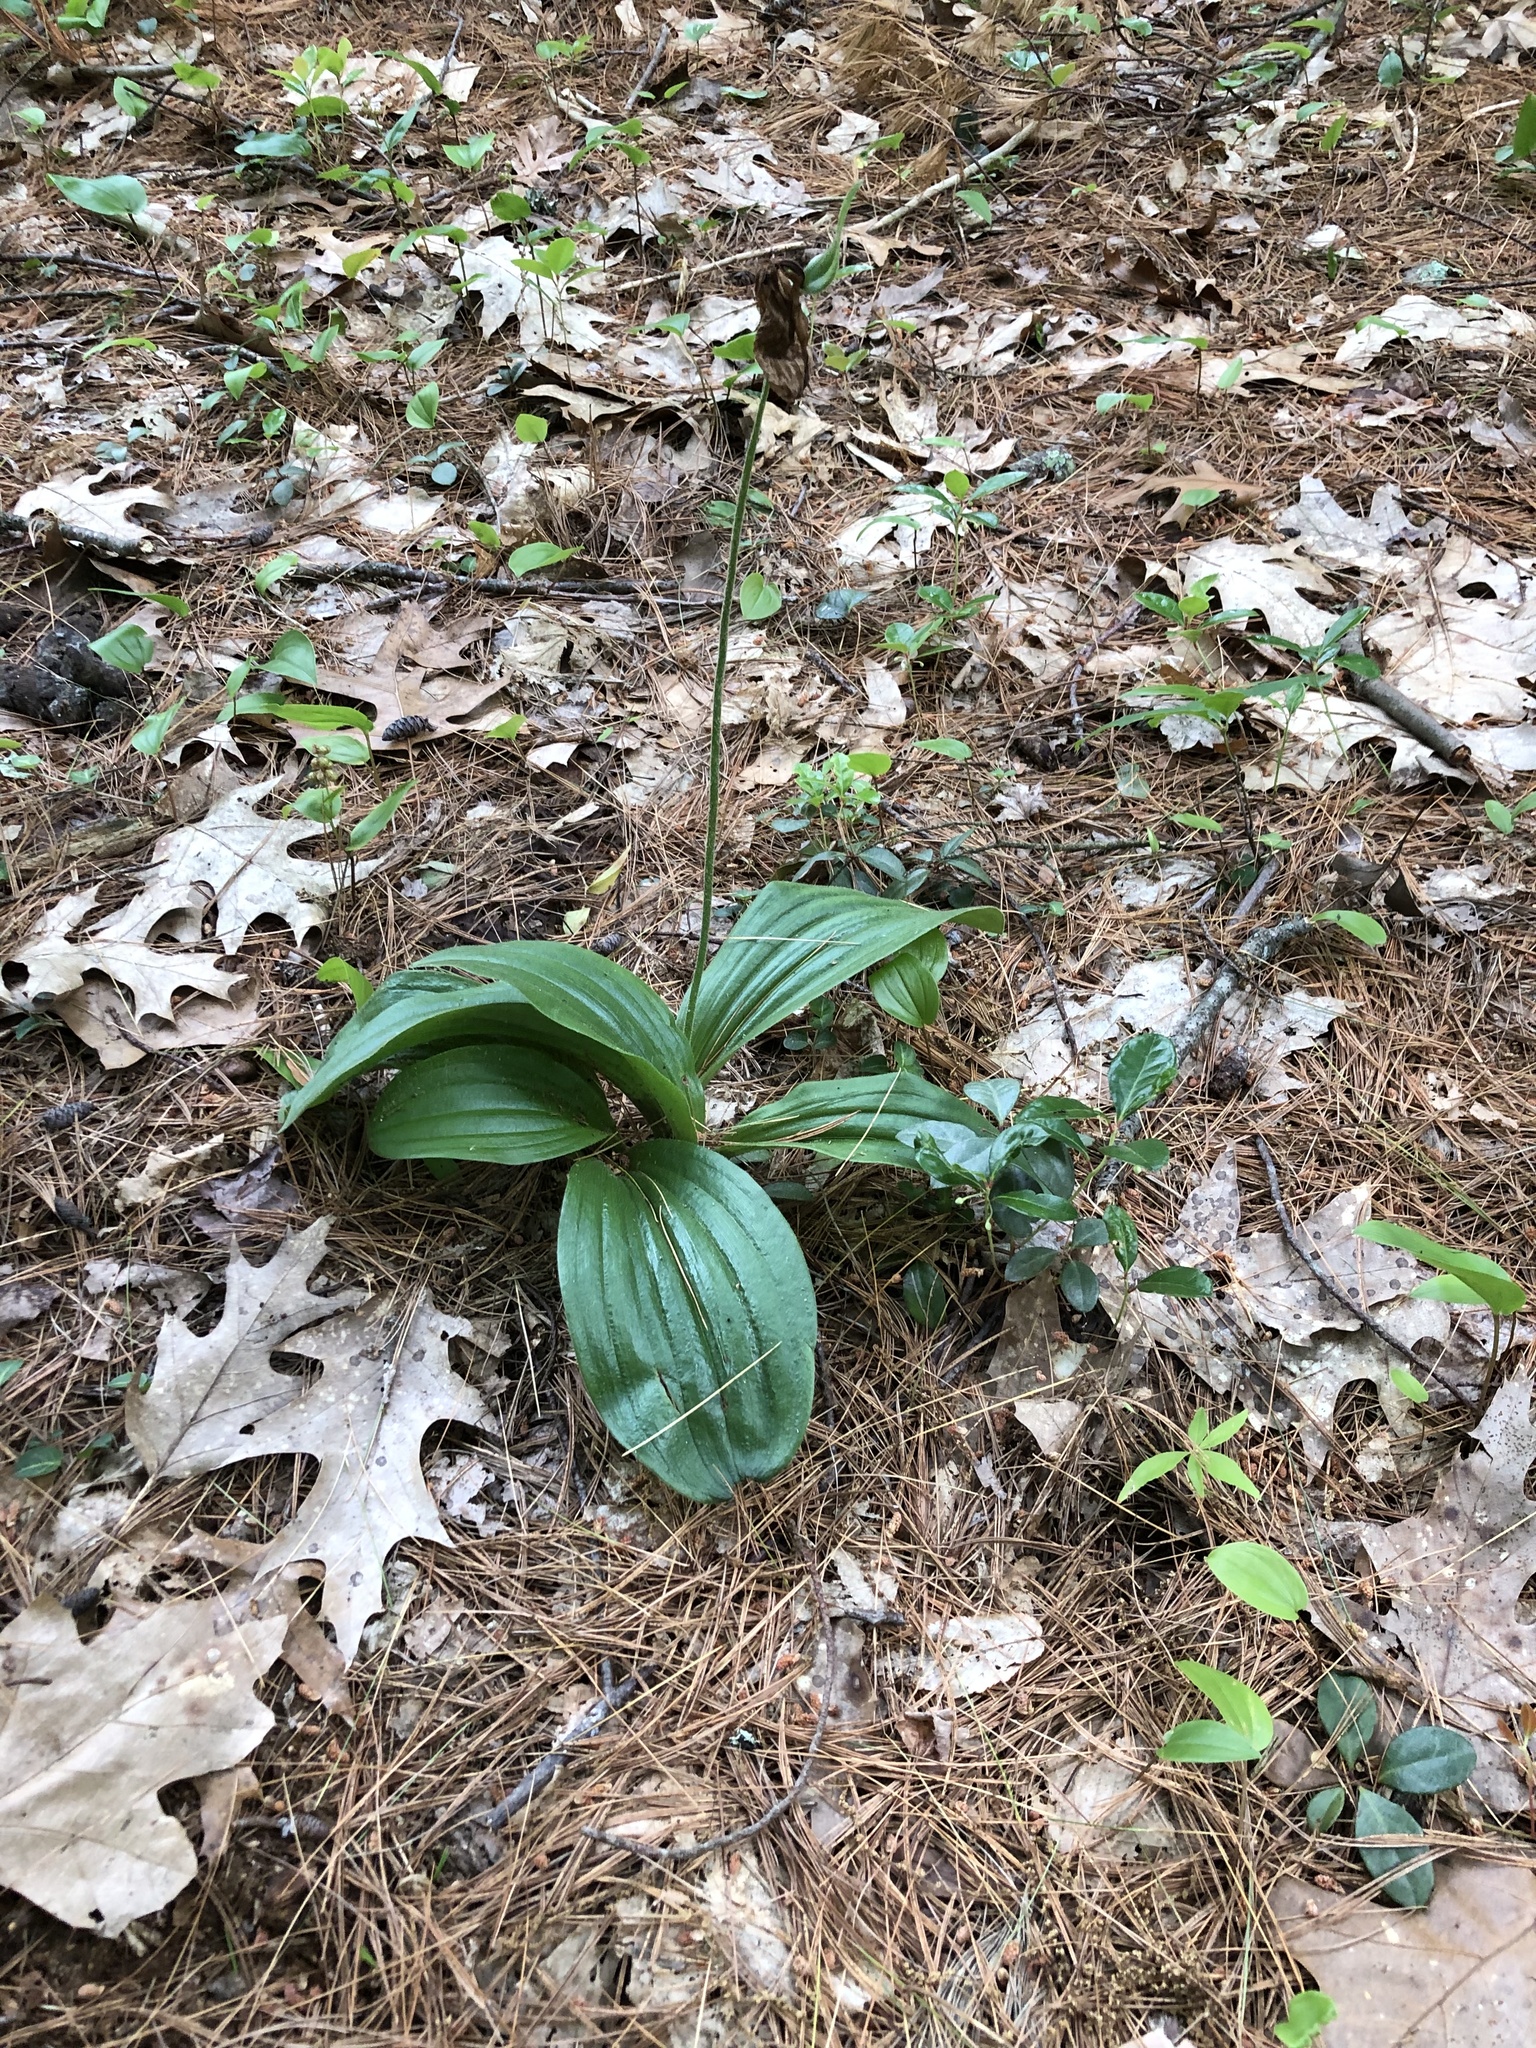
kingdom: Plantae
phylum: Tracheophyta
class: Liliopsida
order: Asparagales
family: Orchidaceae
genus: Cypripedium
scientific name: Cypripedium acaule
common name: Pink lady's-slipper
